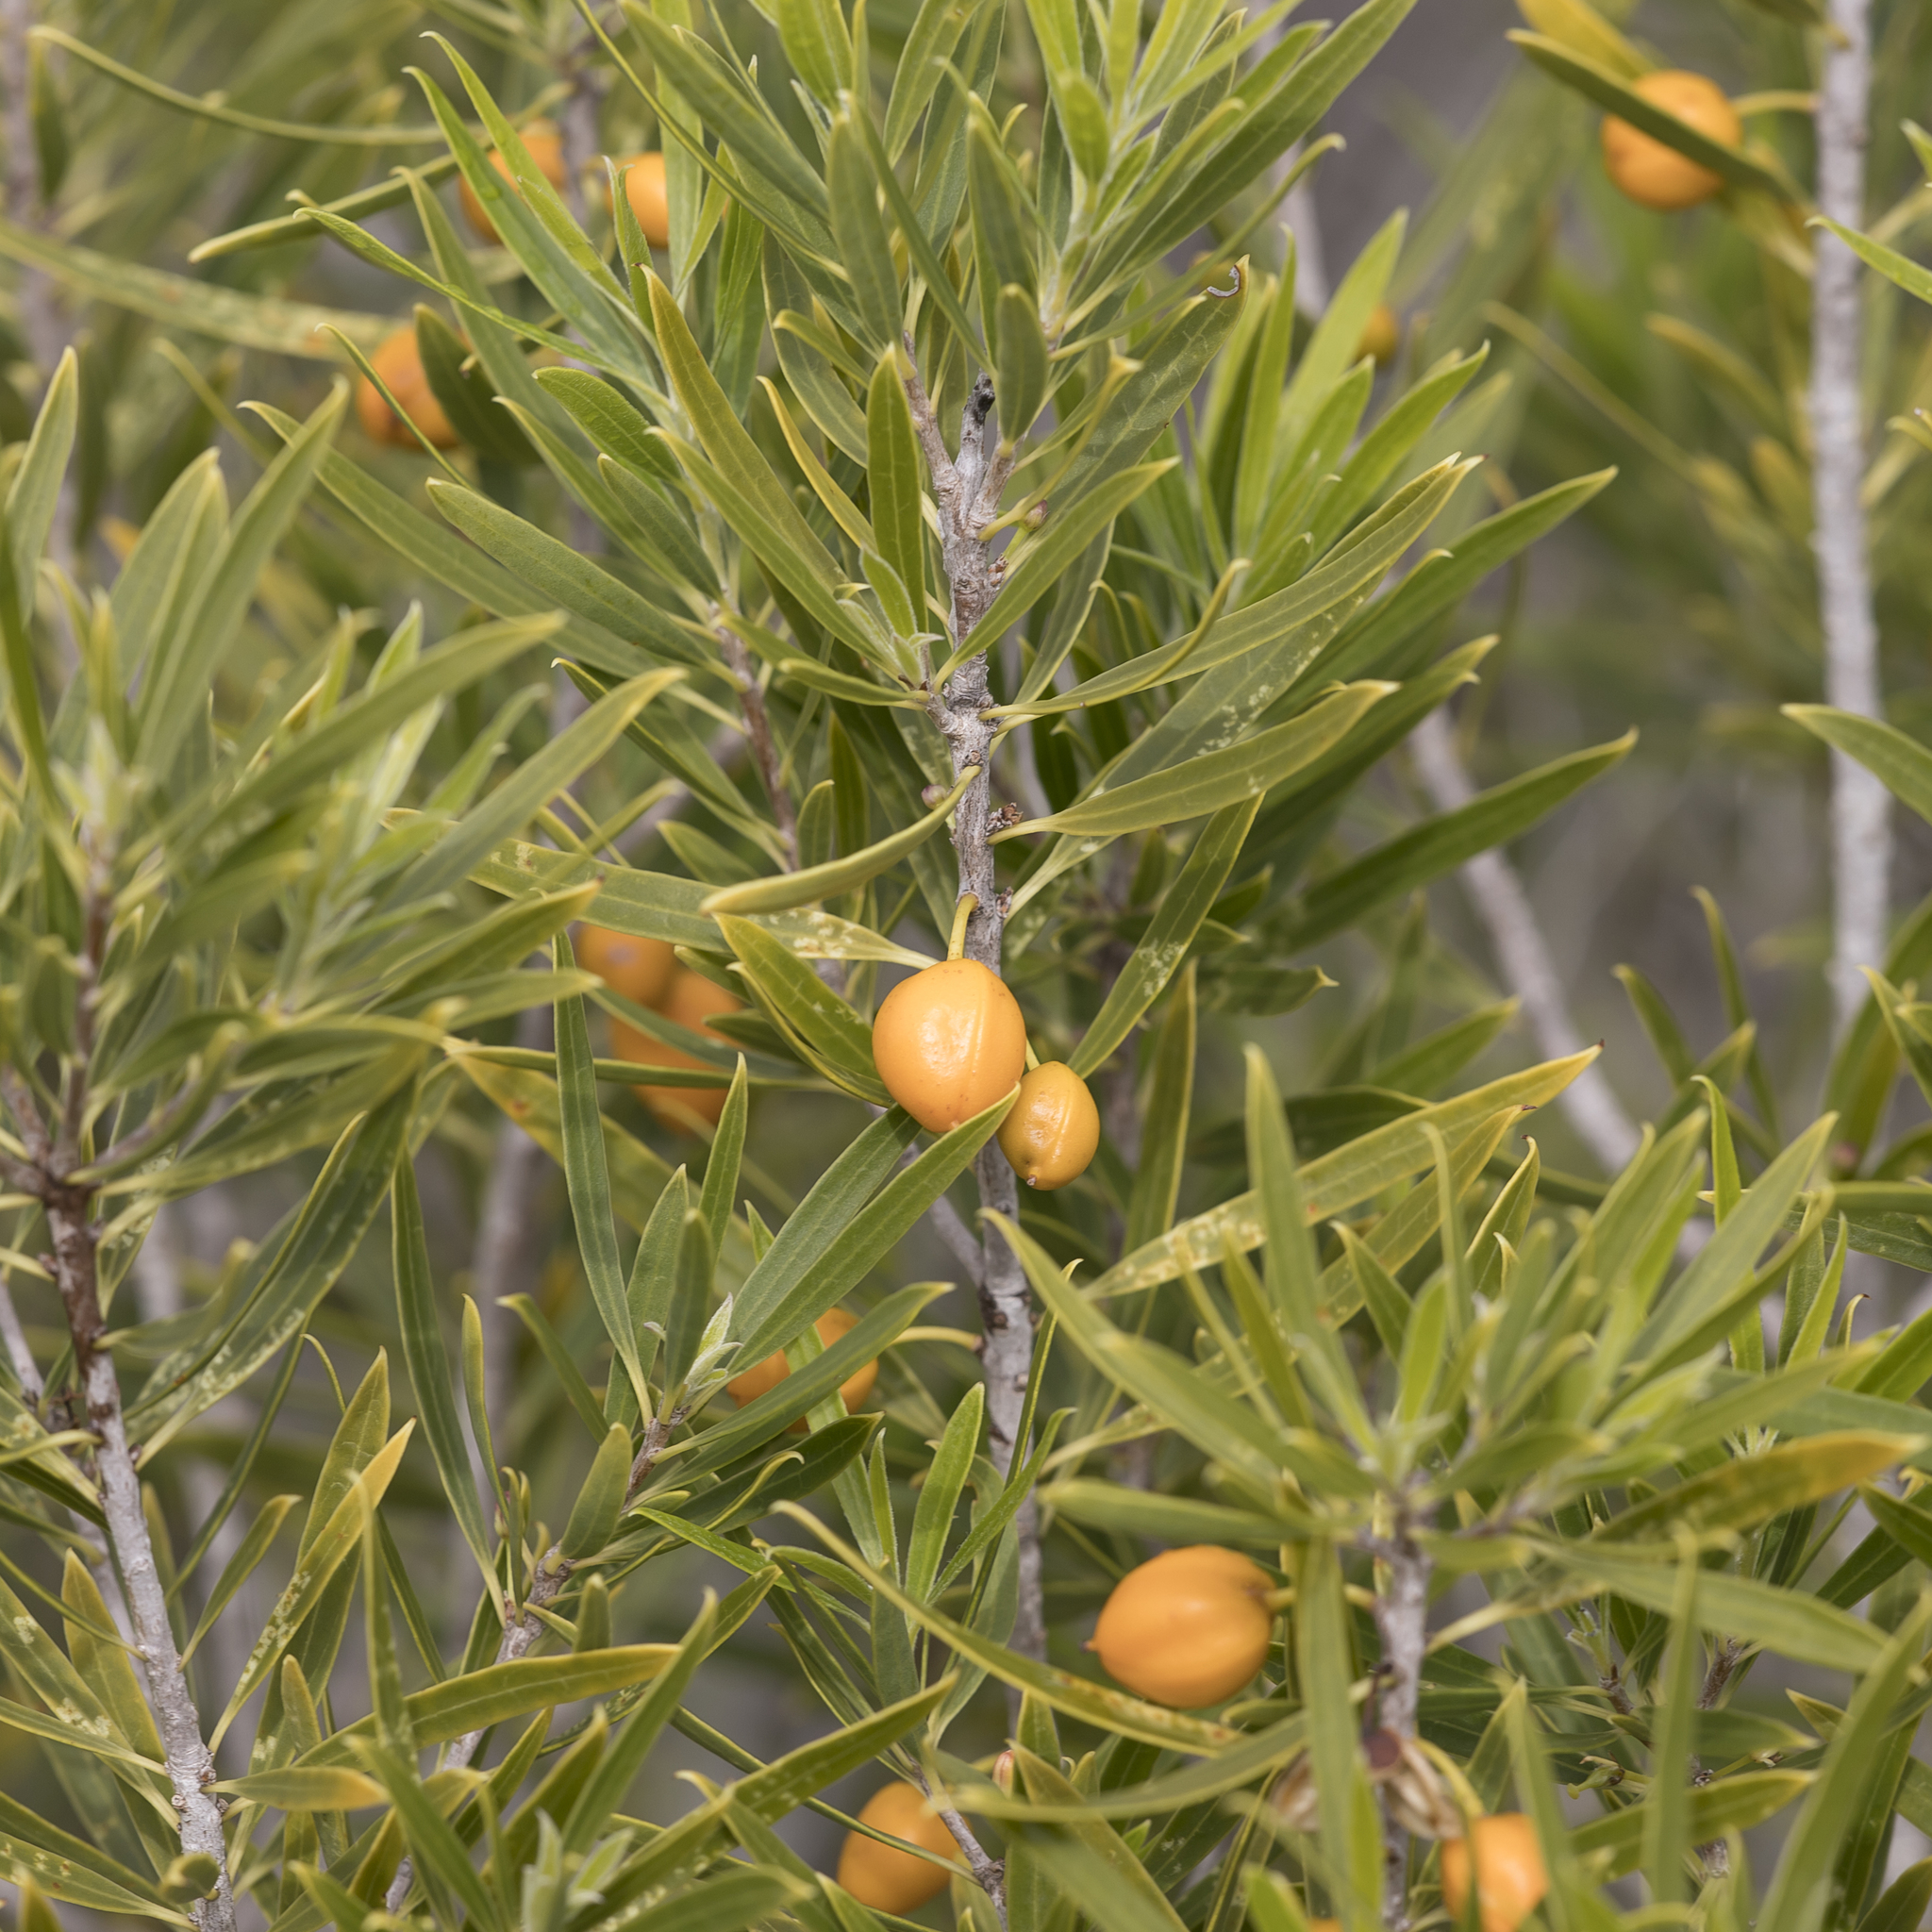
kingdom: Plantae
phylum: Tracheophyta
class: Magnoliopsida
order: Apiales
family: Pittosporaceae
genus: Pittosporum
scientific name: Pittosporum angustifolium
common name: Weeping pittosporum
